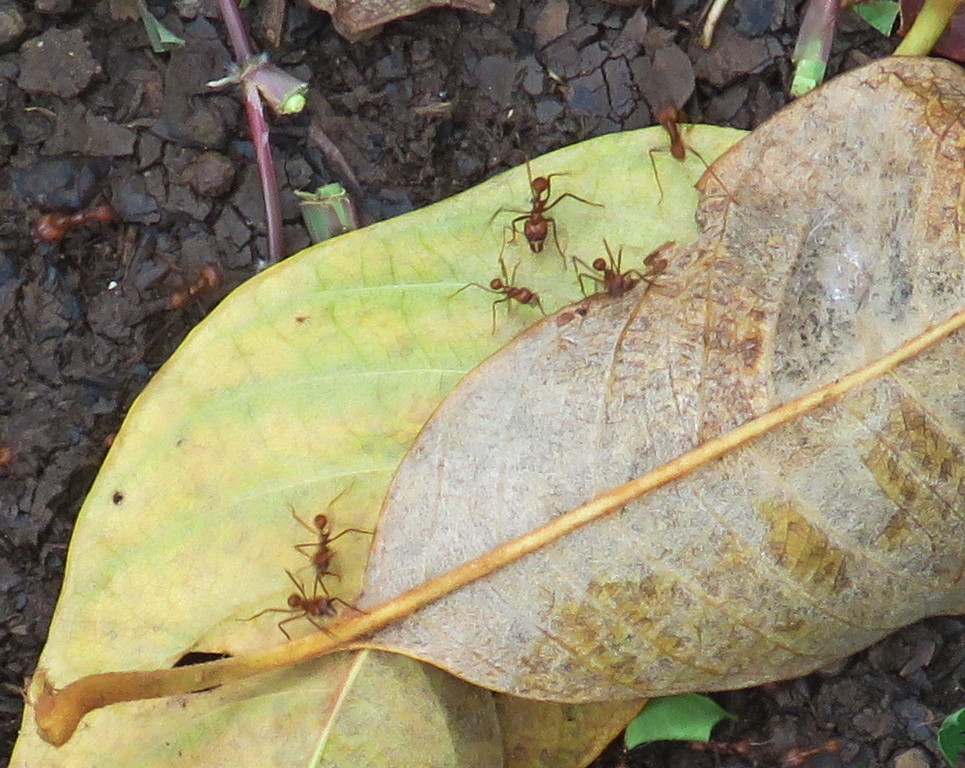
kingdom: Animalia
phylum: Arthropoda
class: Insecta
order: Hymenoptera
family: Formicidae
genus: Atta
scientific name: Atta cephalotes
